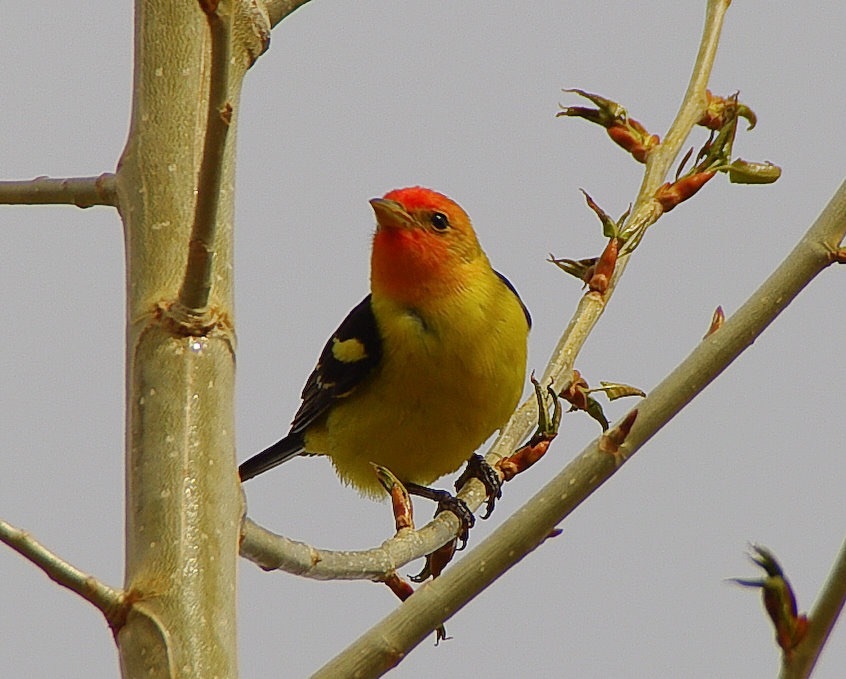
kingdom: Animalia
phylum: Chordata
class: Aves
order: Passeriformes
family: Cardinalidae
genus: Piranga
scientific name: Piranga ludoviciana
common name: Western tanager
